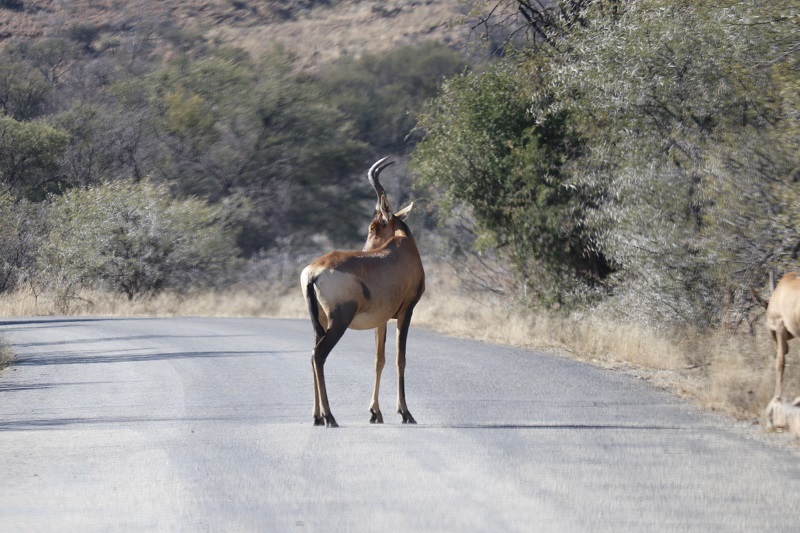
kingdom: Animalia
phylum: Chordata
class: Mammalia
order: Artiodactyla
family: Bovidae
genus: Alcelaphus
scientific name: Alcelaphus caama
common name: Red hartebeest
